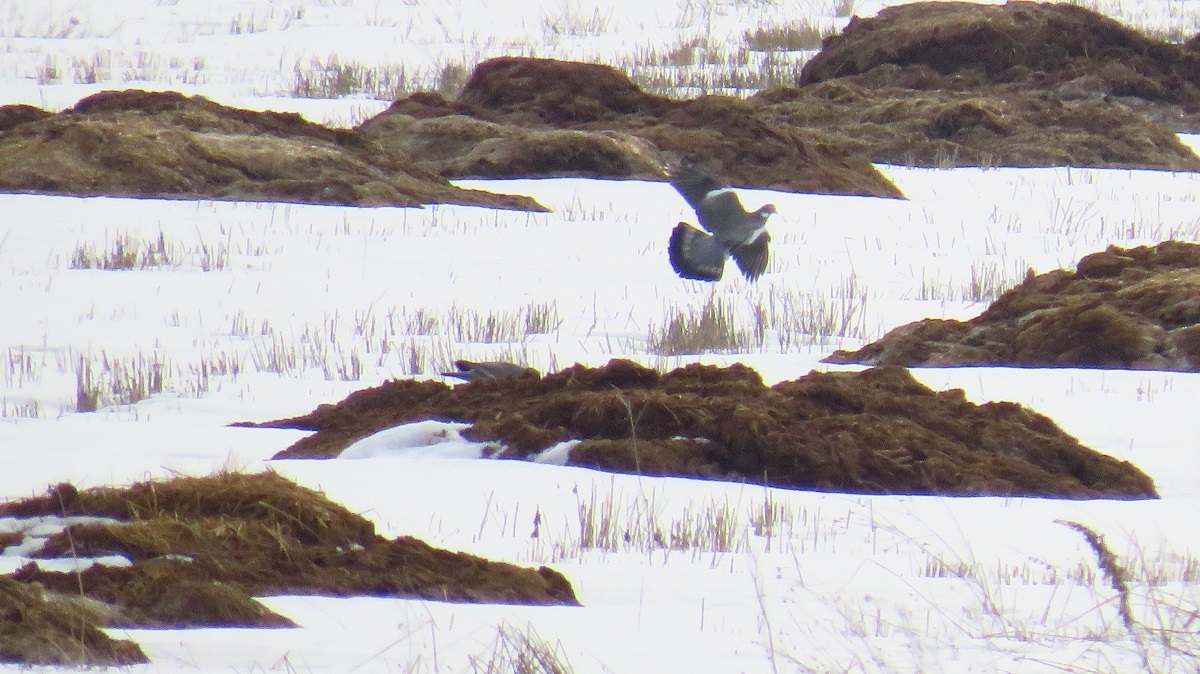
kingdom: Animalia
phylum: Chordata
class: Aves
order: Columbiformes
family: Columbidae
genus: Columba
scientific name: Columba palumbus
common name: Common wood pigeon
